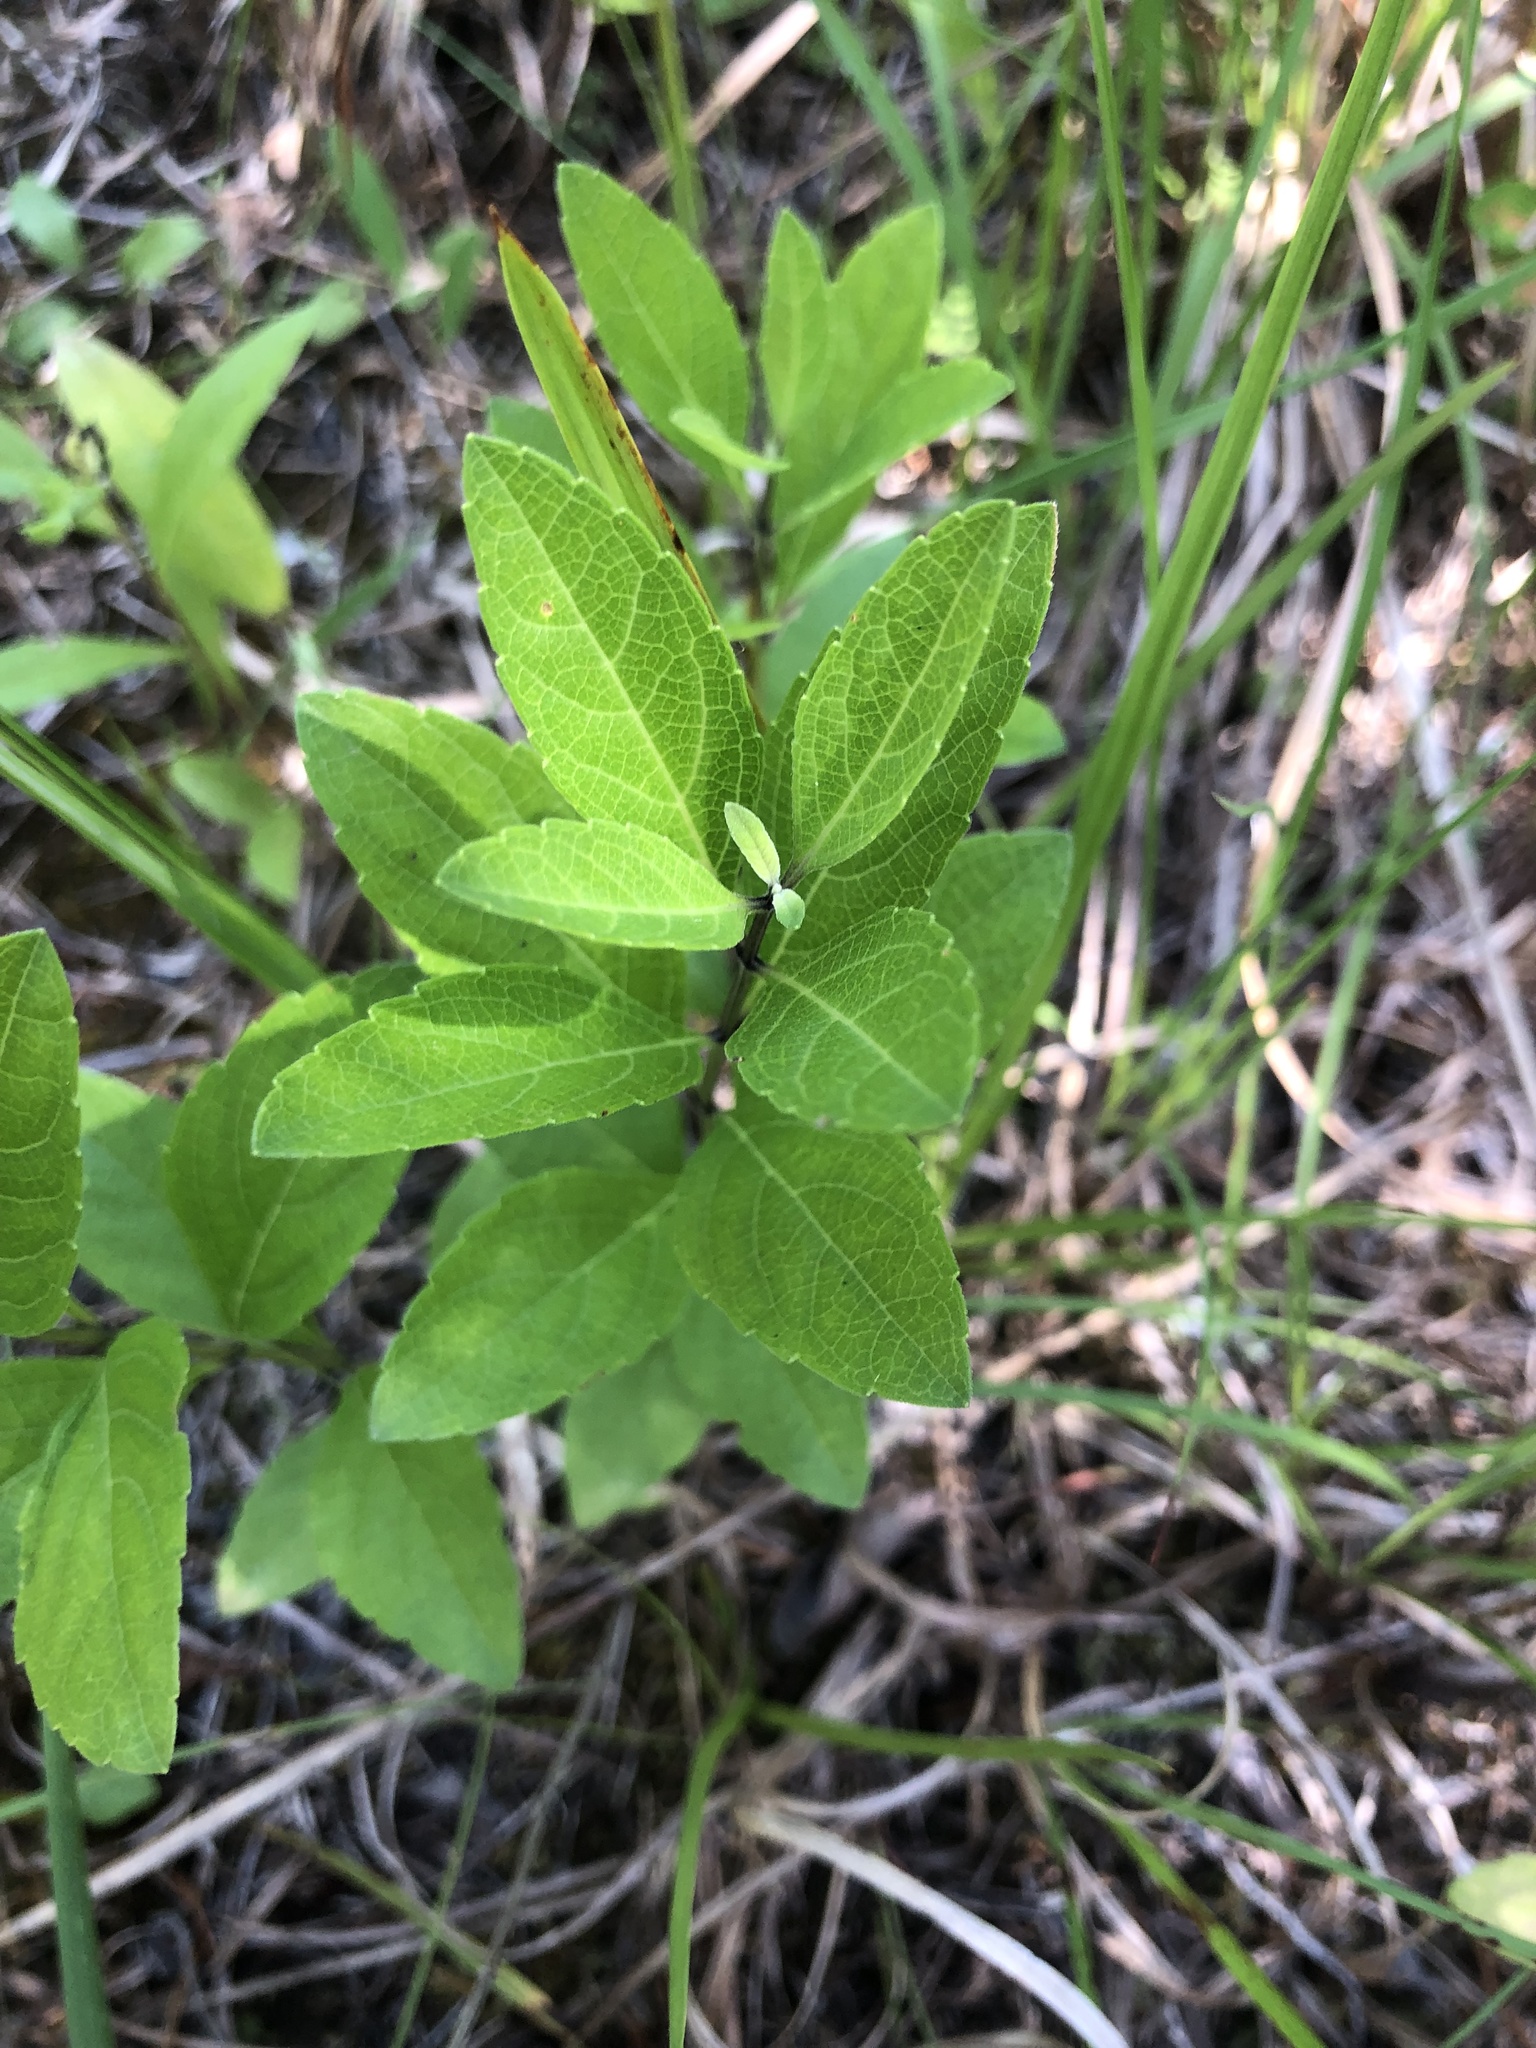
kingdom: Plantae
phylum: Tracheophyta
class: Magnoliopsida
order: Lamiales
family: Lamiaceae
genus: Salvia
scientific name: Salvia azurea
